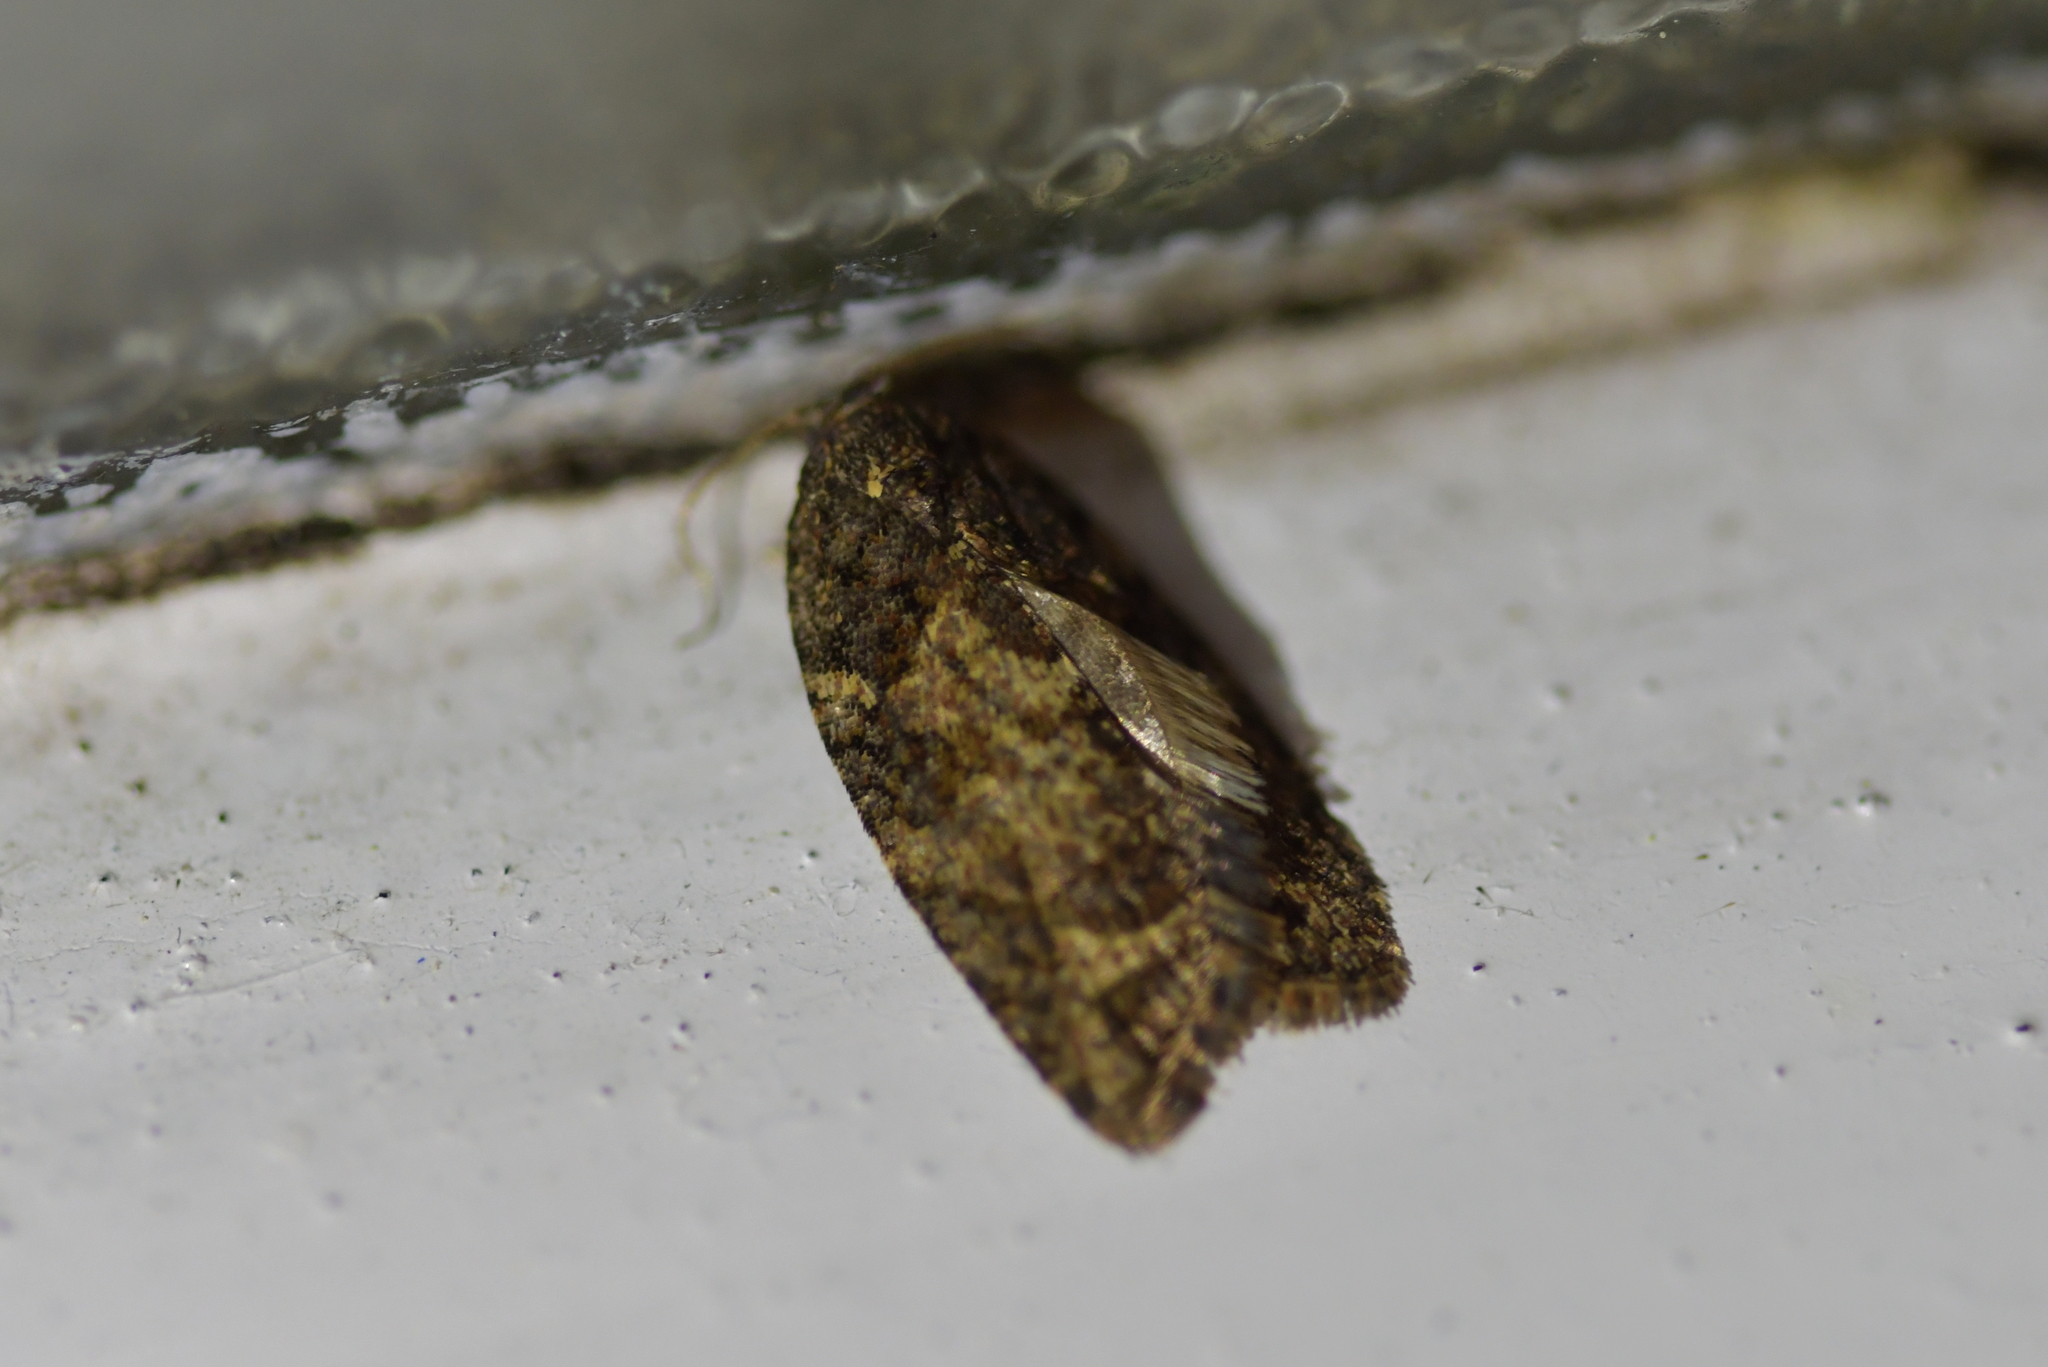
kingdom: Animalia
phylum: Arthropoda
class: Insecta
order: Lepidoptera
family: Tortricidae
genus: Capua
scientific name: Capua intractana
